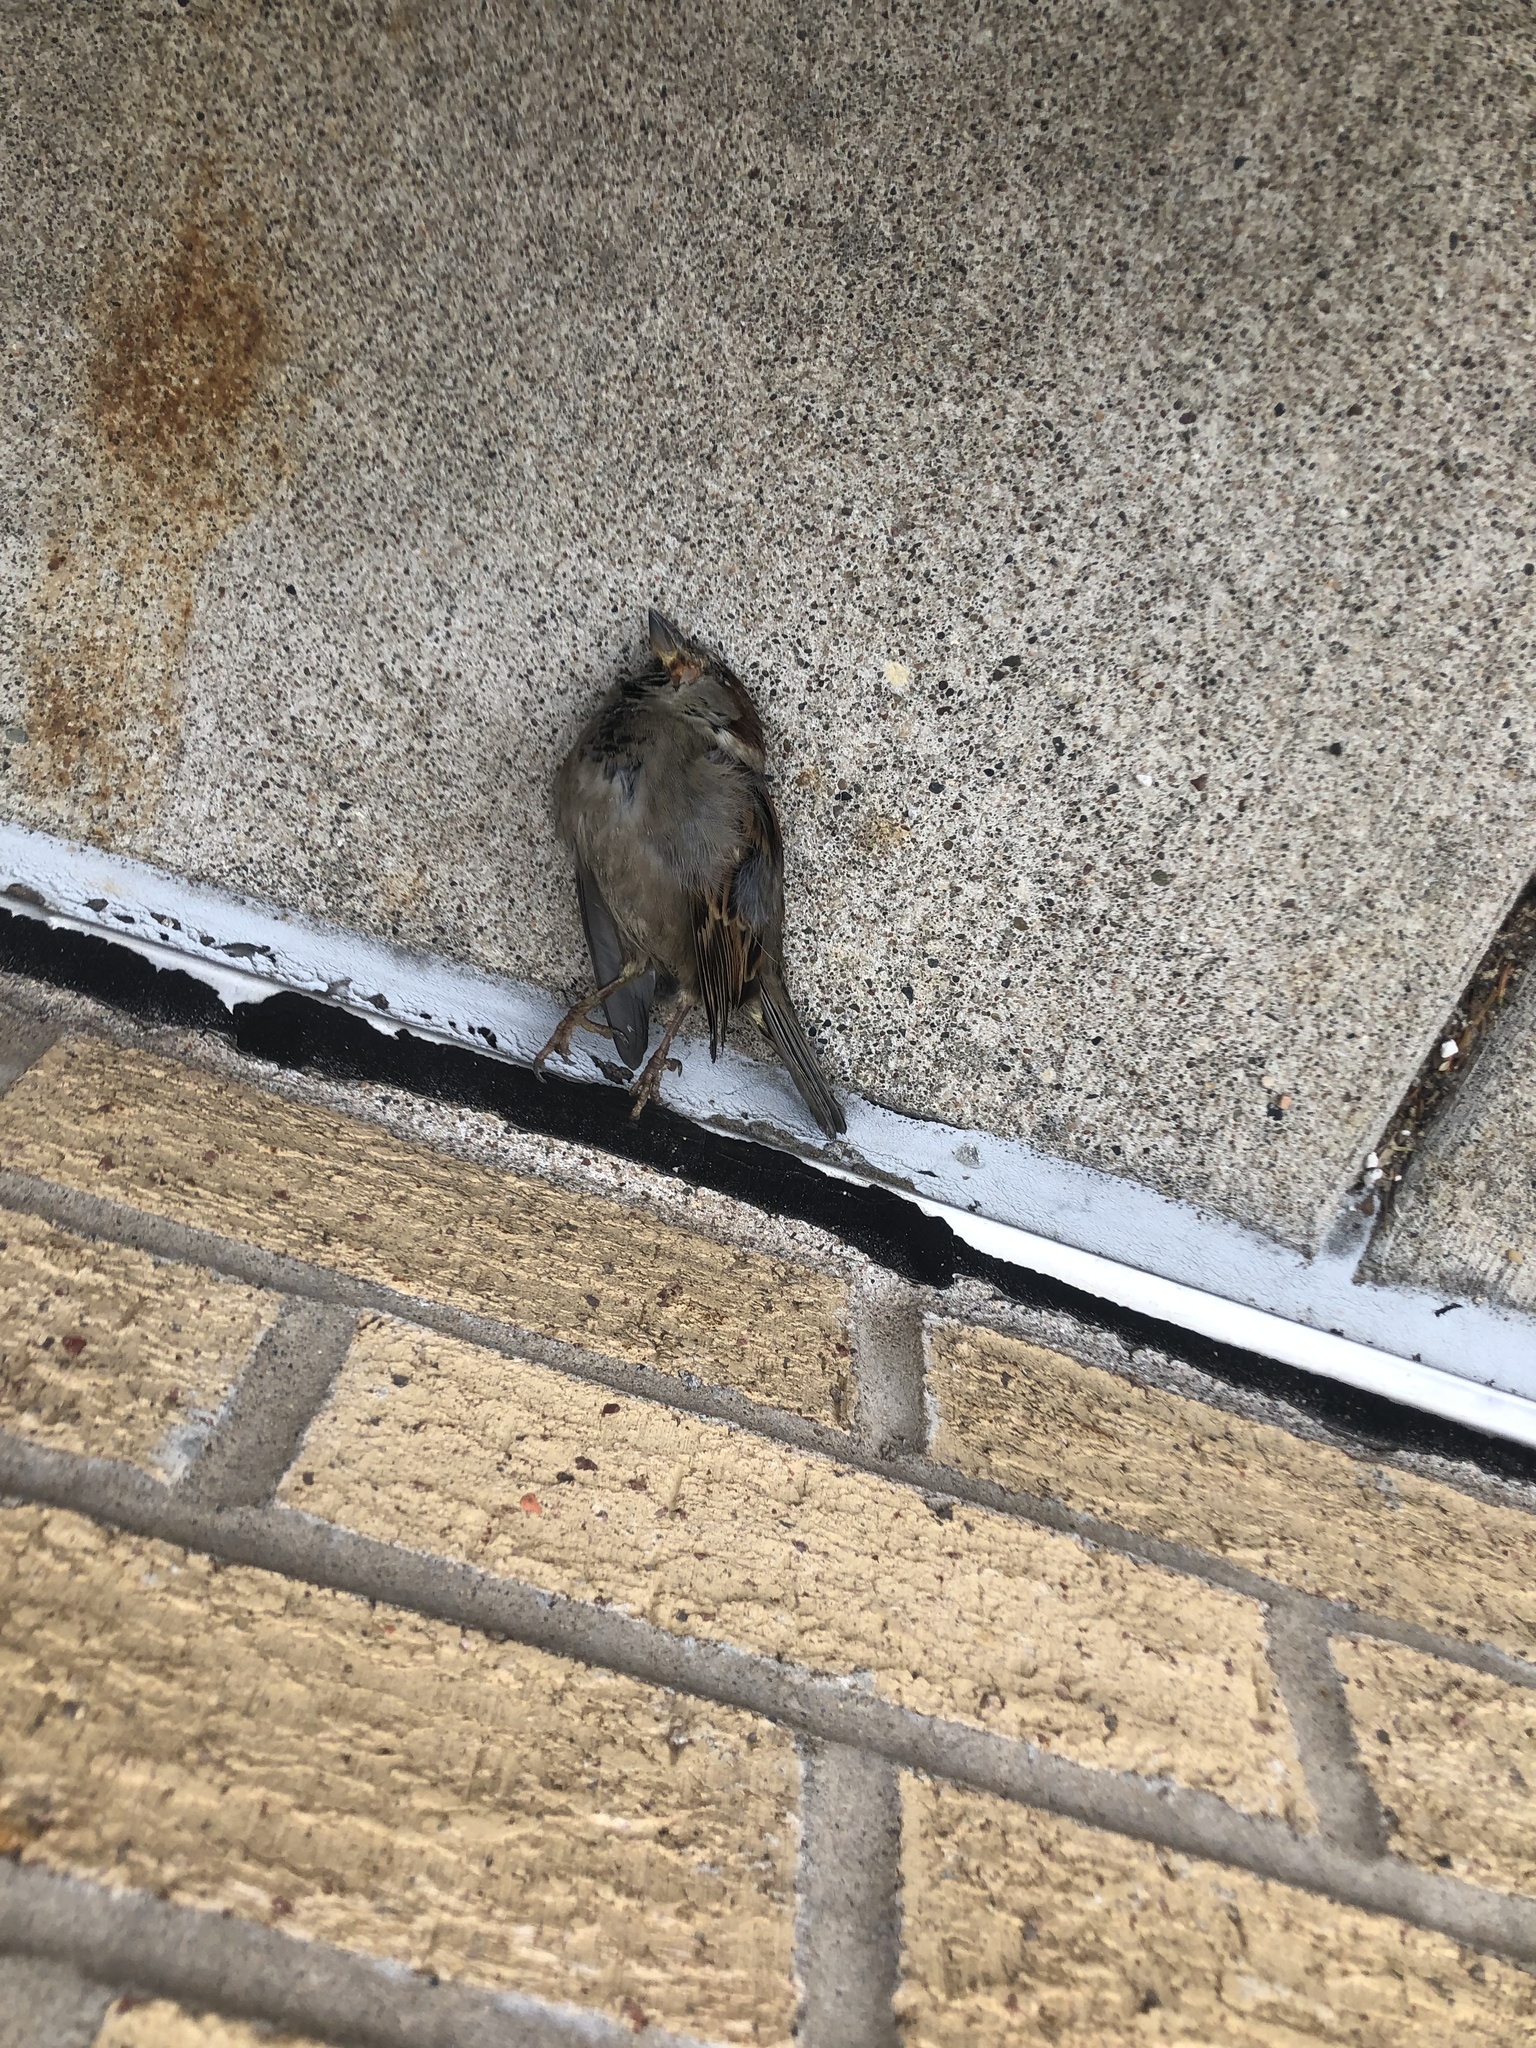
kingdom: Animalia
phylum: Chordata
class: Aves
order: Passeriformes
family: Passeridae
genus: Passer
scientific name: Passer domesticus
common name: House sparrow
